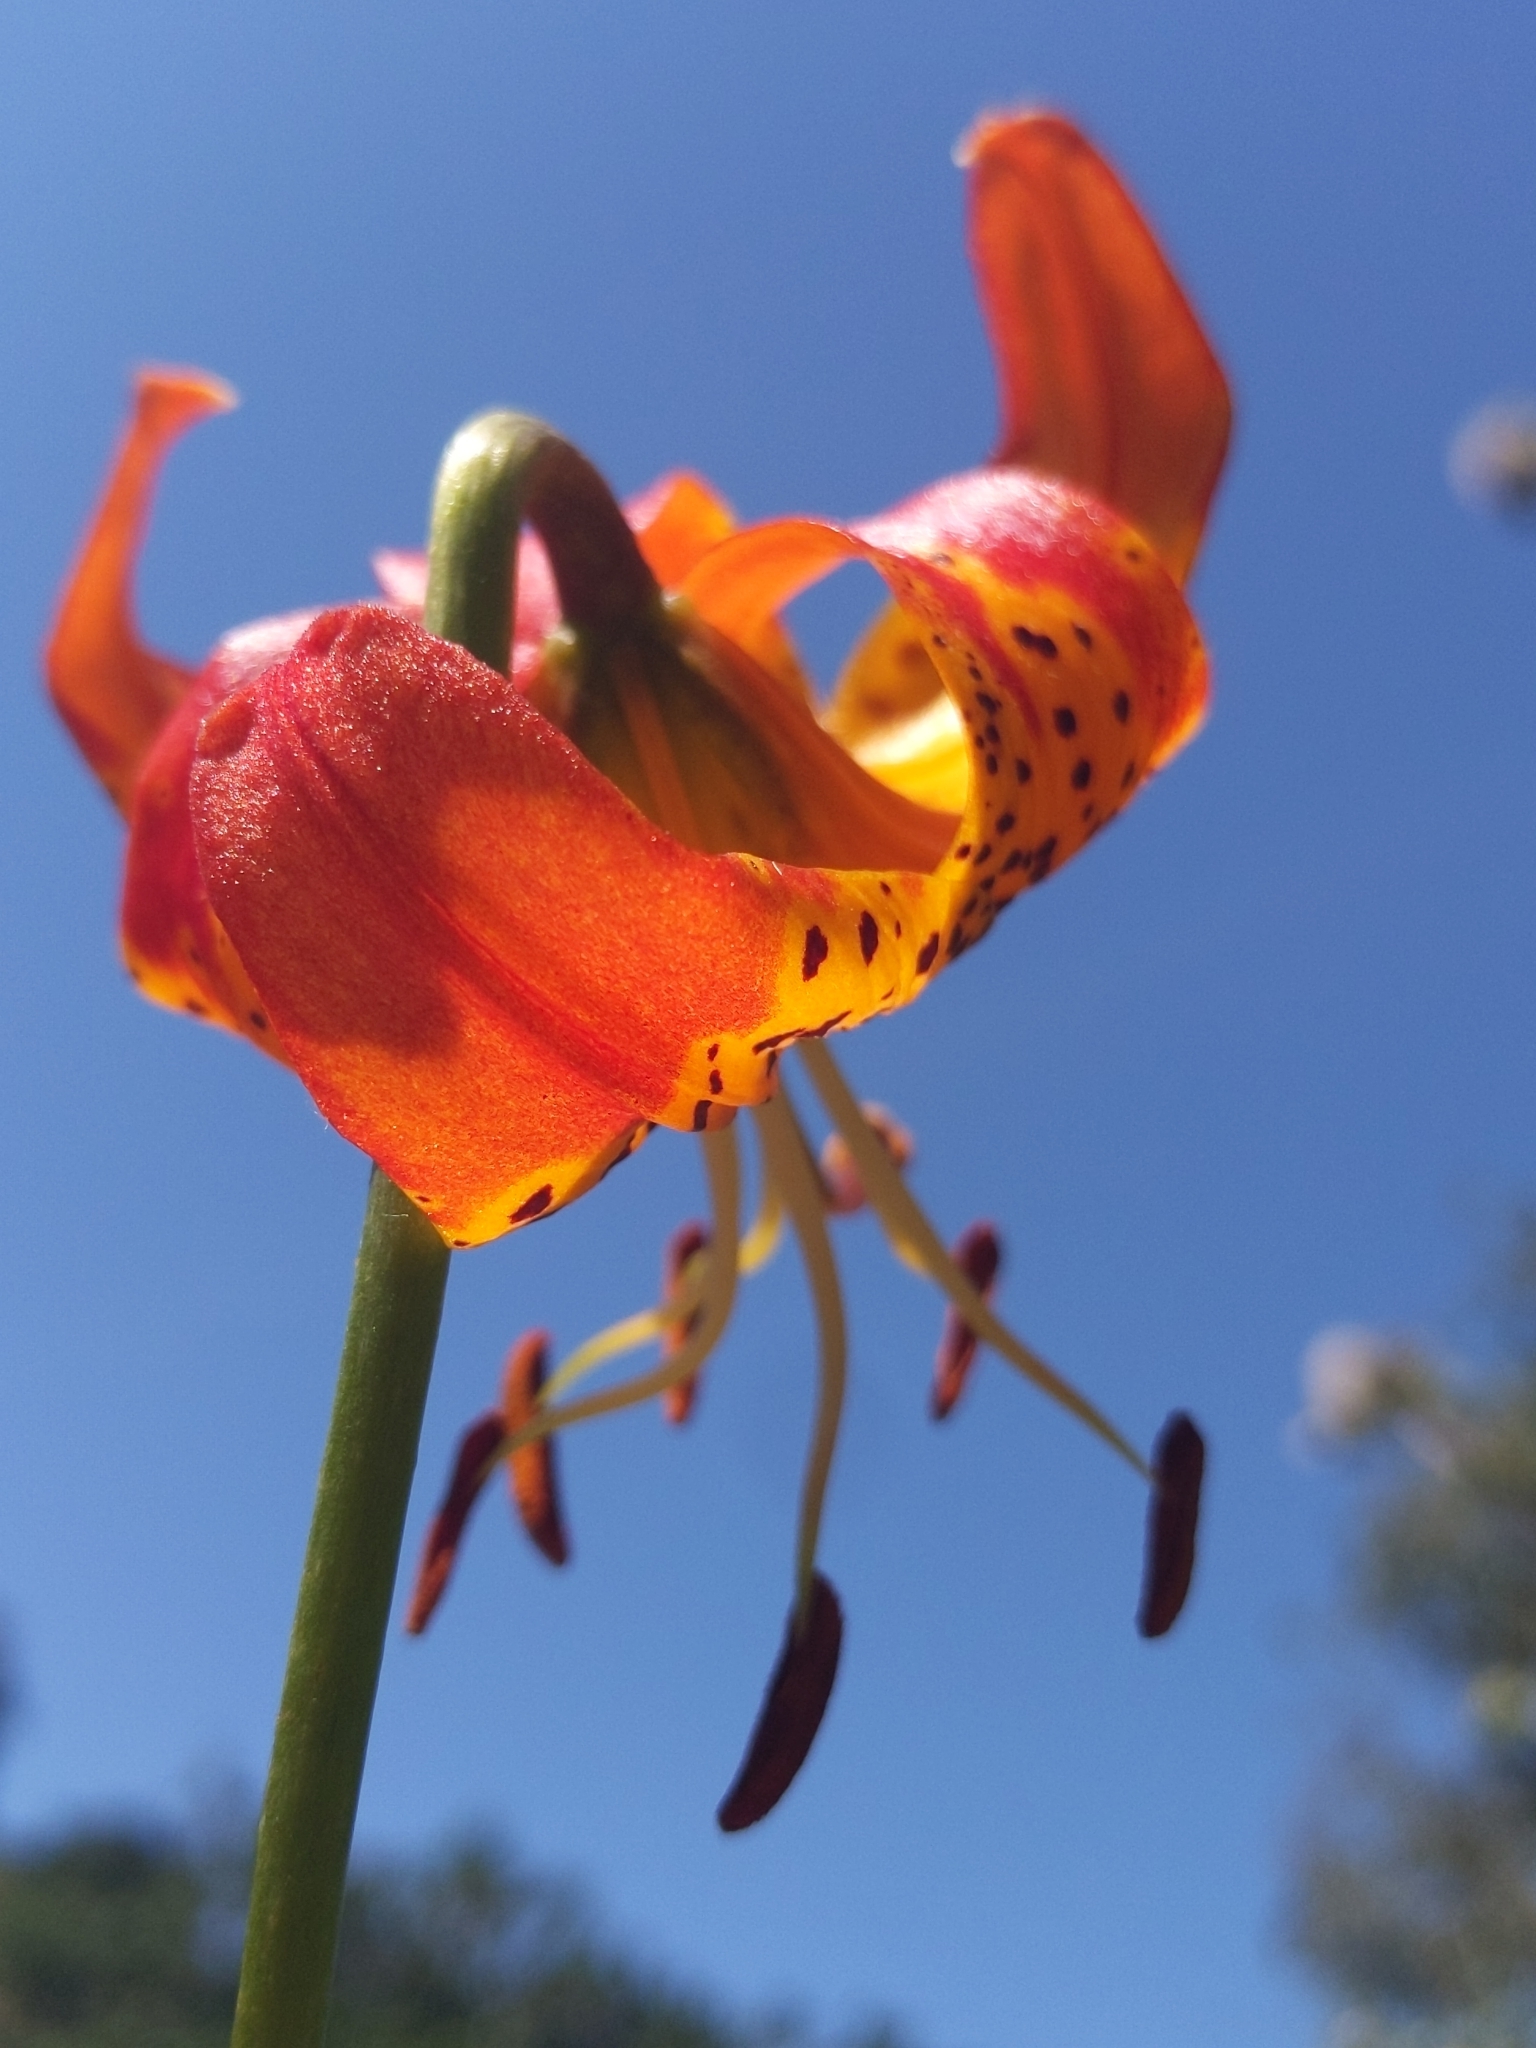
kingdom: Plantae
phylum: Tracheophyta
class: Liliopsida
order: Liliales
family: Liliaceae
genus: Lilium
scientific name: Lilium pardalinum
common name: Panther lily
